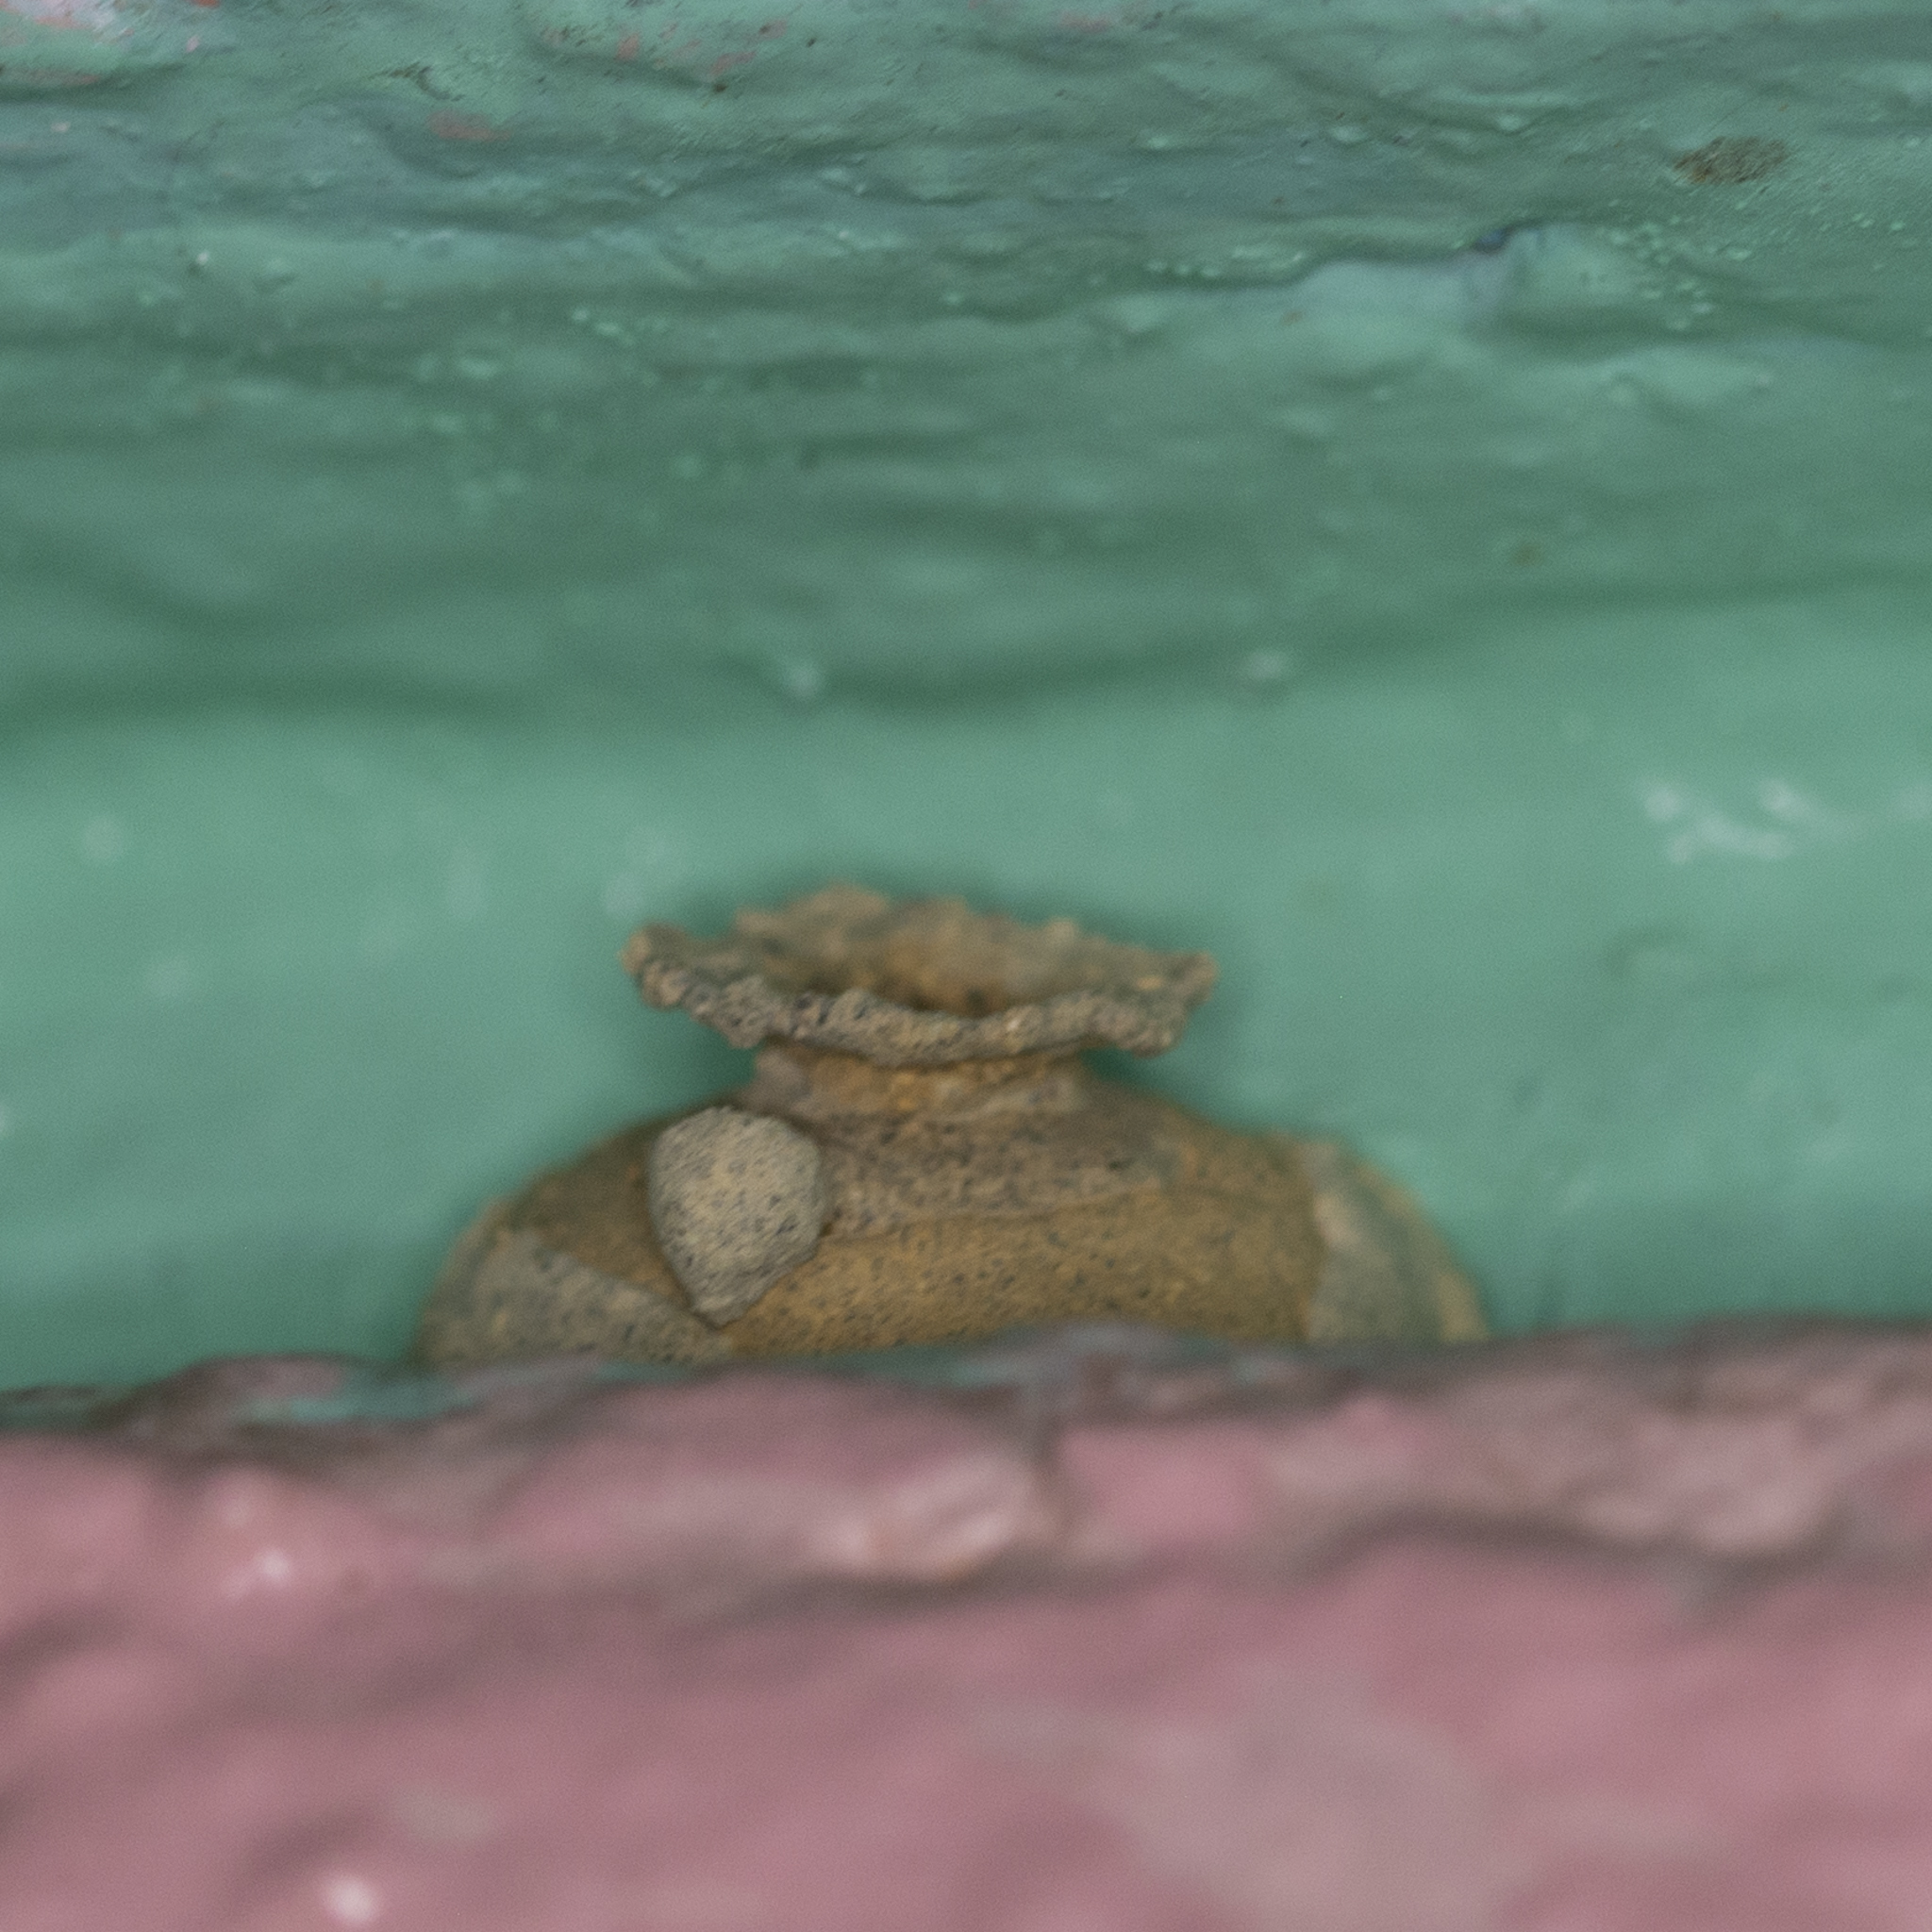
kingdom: Animalia
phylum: Arthropoda
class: Insecta
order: Hymenoptera
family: Eumenidae
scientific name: Eumenidae
